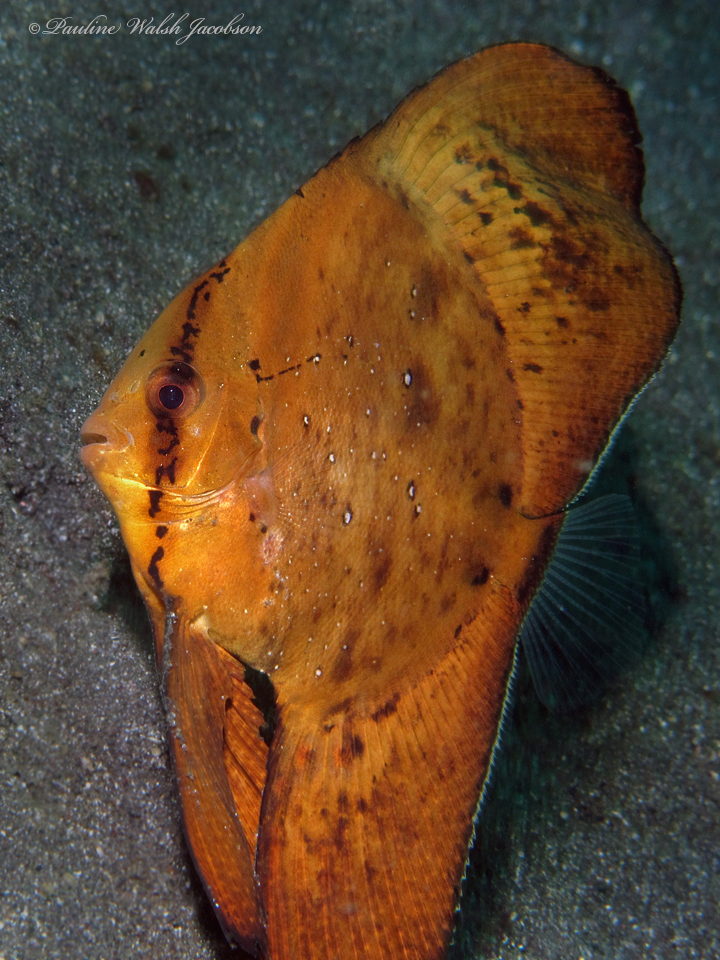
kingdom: Animalia
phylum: Chordata
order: Perciformes
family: Ephippidae
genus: Platax
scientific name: Platax orbicularis
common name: Batfish
